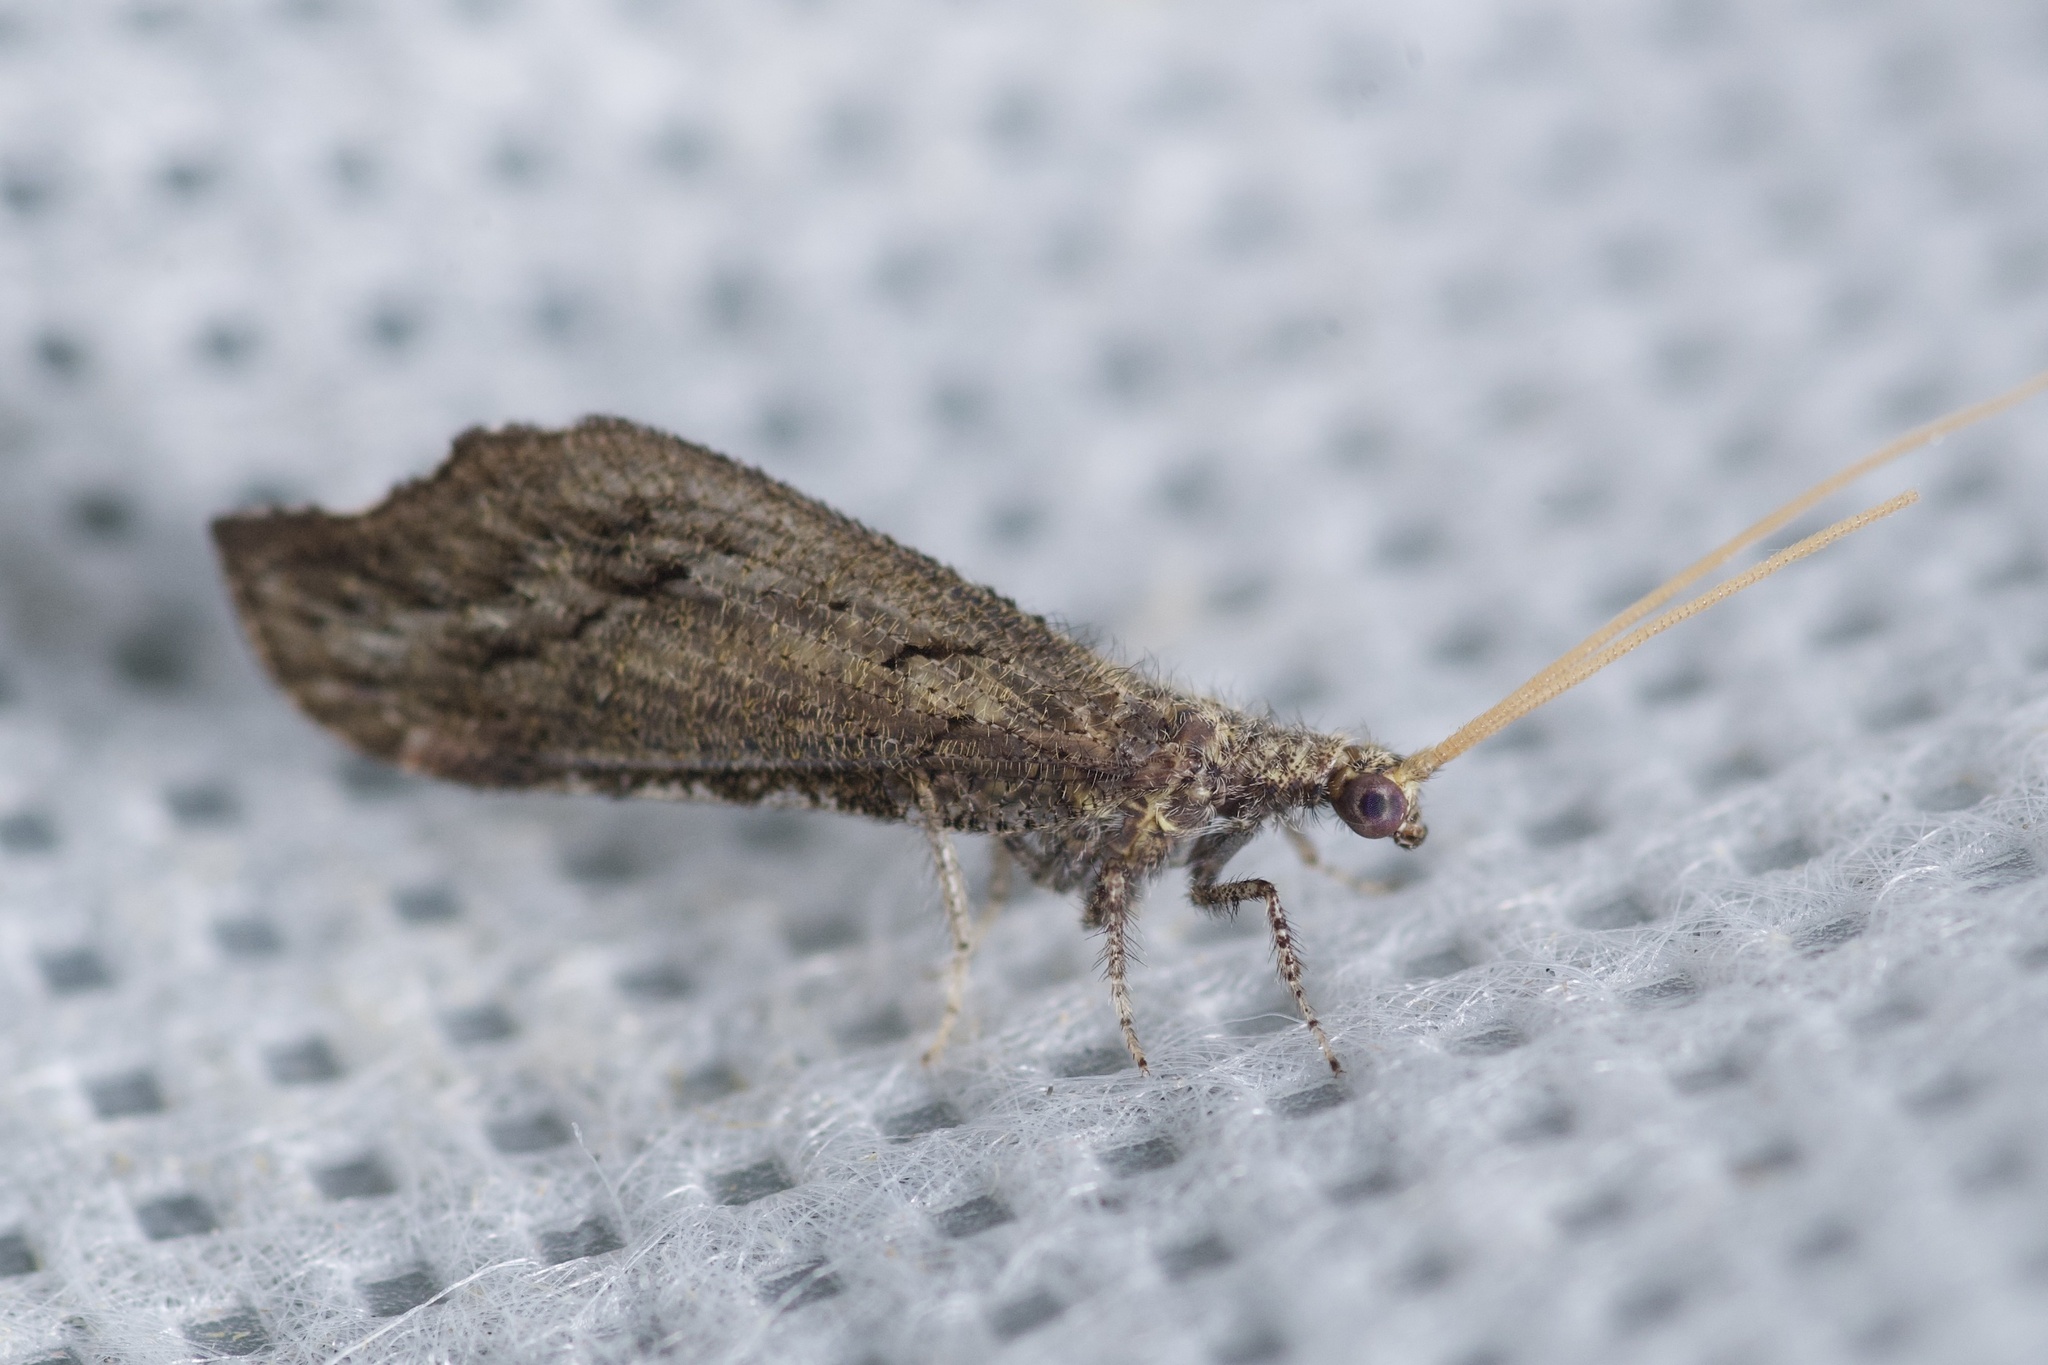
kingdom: Animalia
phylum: Arthropoda
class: Insecta
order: Neuroptera
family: Berothidae
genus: Lomamyia
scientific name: Lomamyia squamosa
